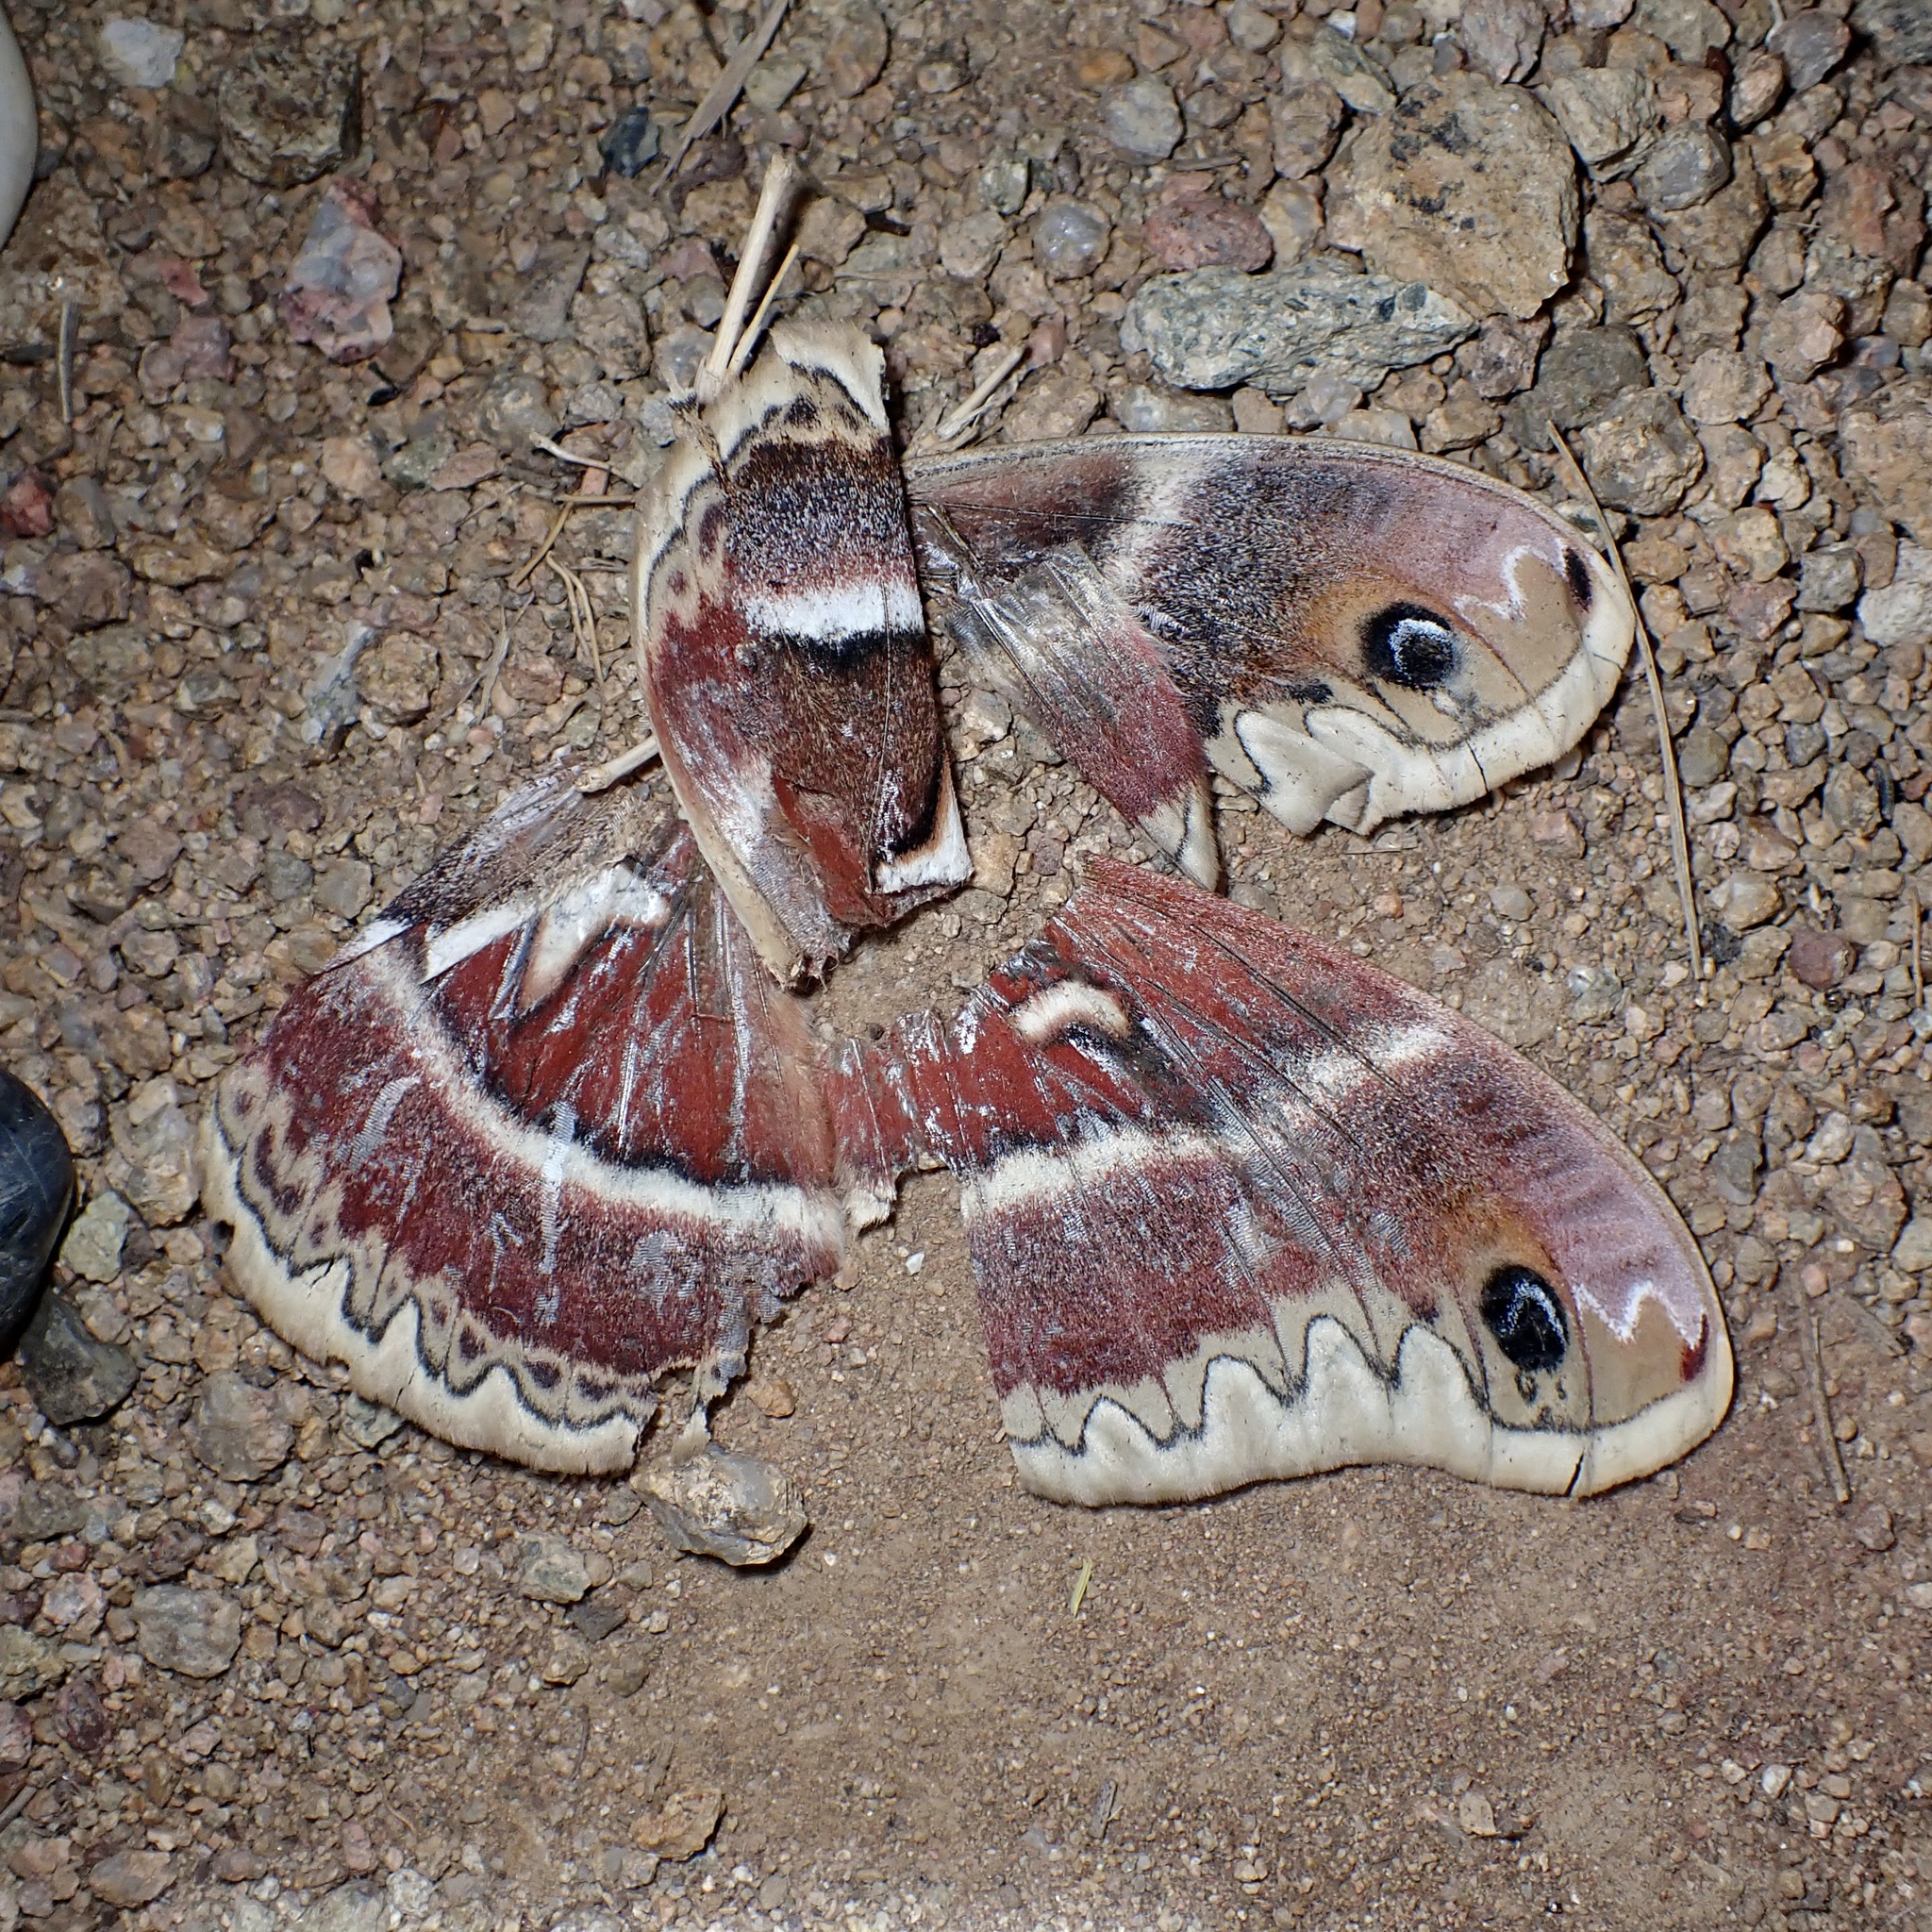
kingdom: Animalia
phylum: Arthropoda
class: Insecta
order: Lepidoptera
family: Saturniidae
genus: Hyalophora
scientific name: Hyalophora gloveri
